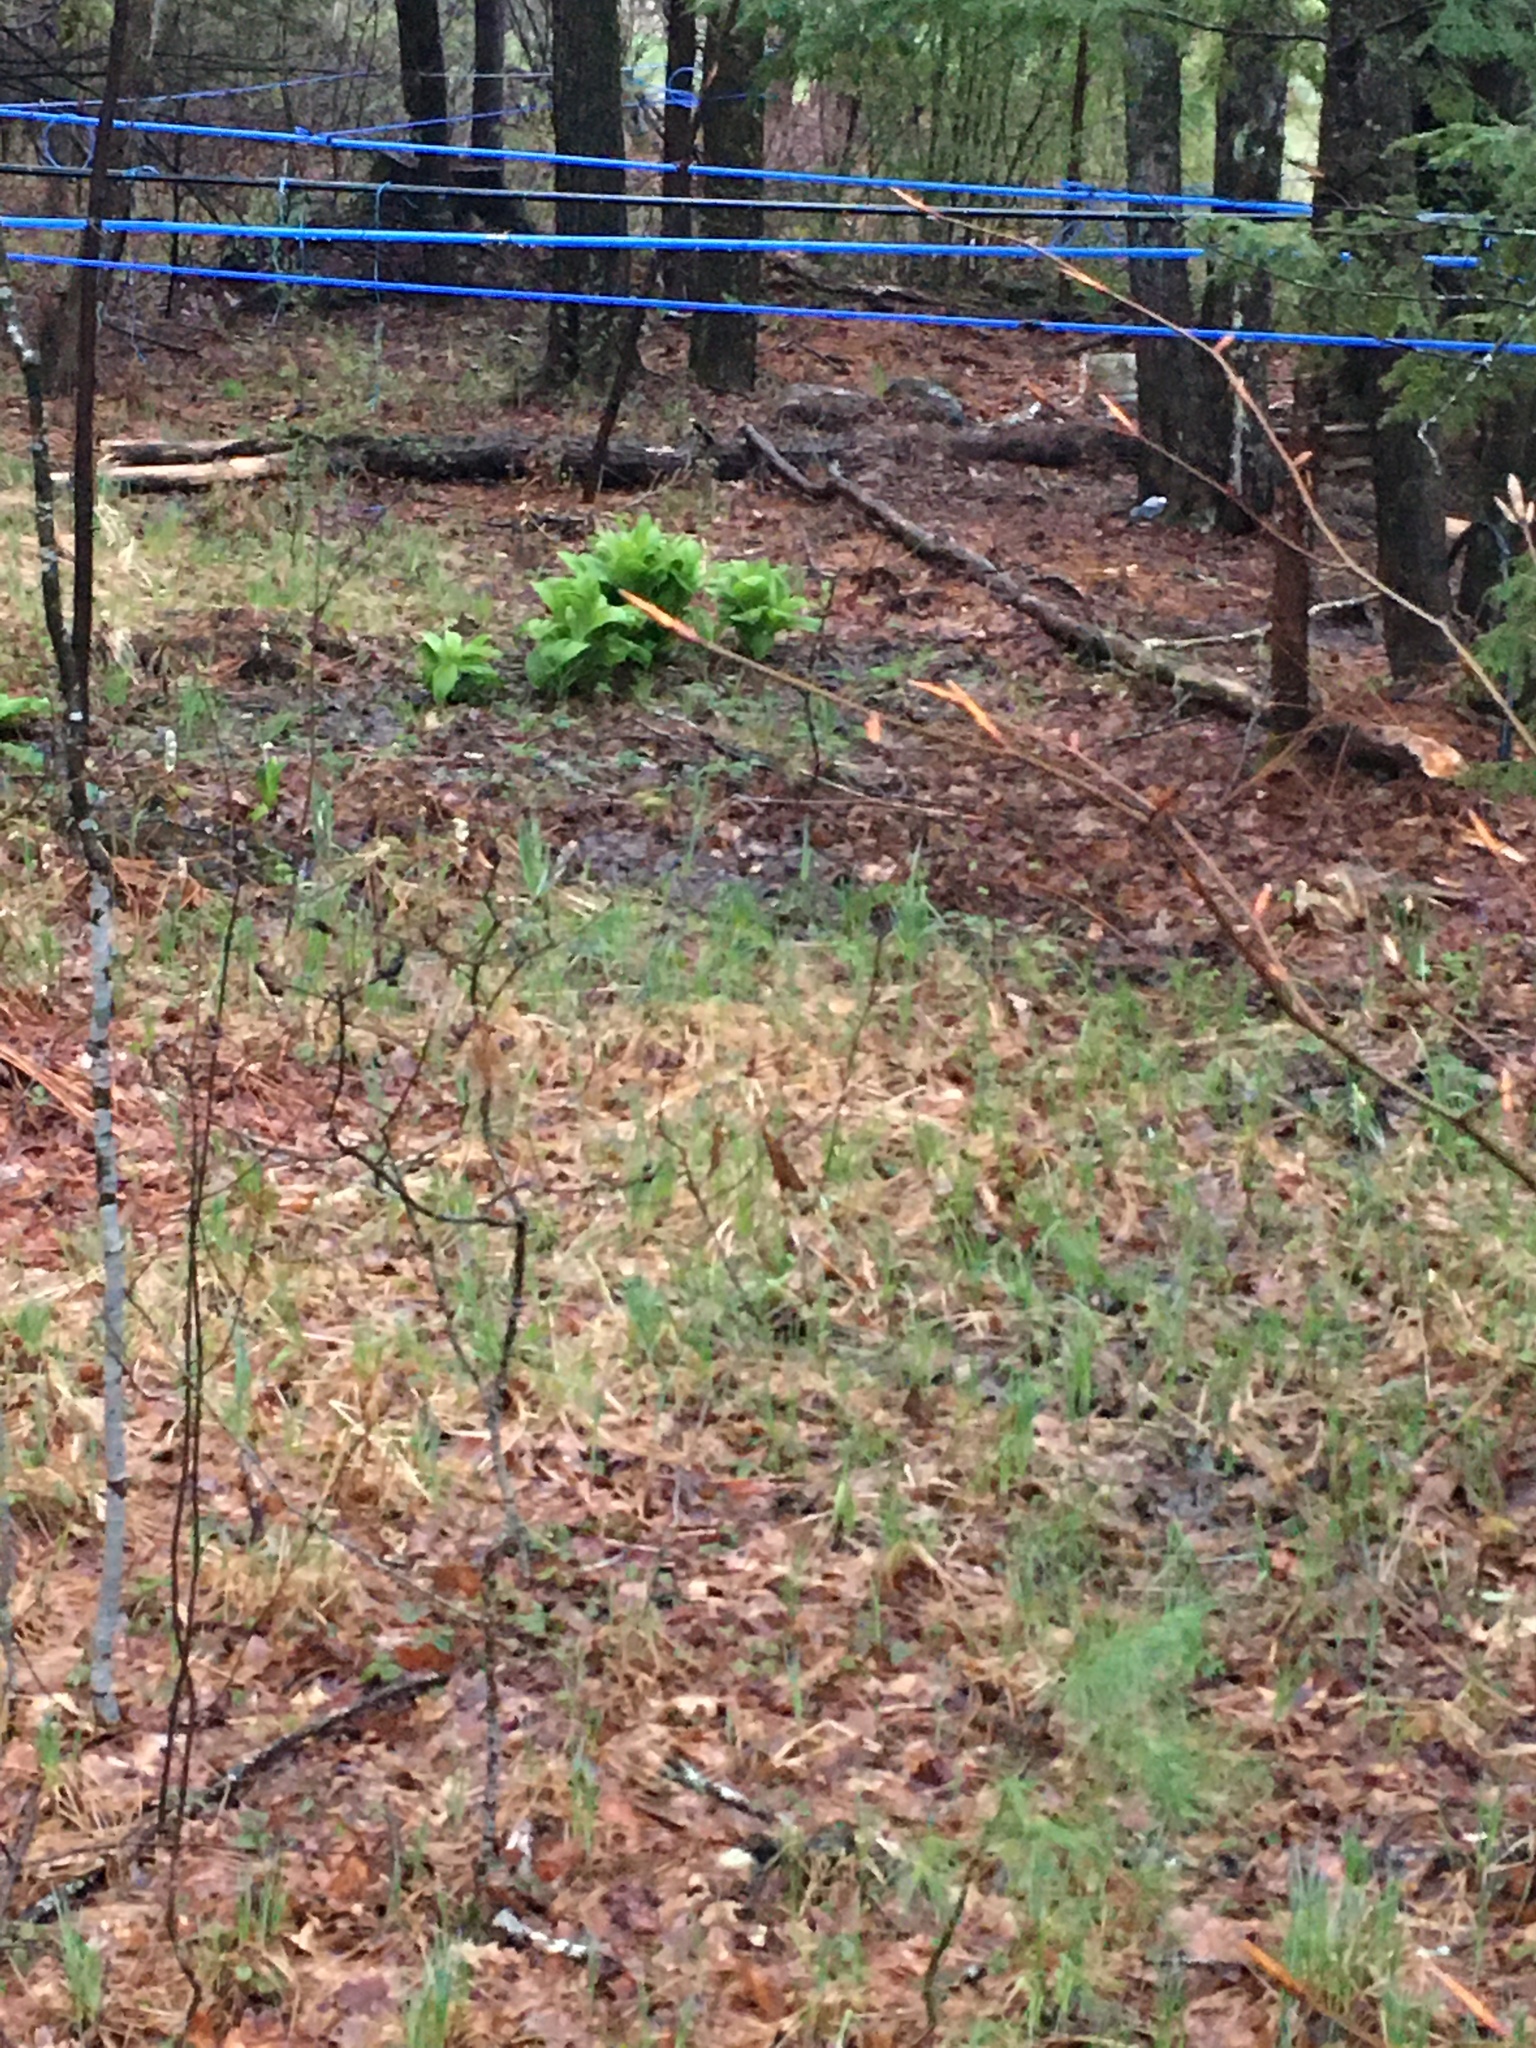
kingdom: Plantae
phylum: Tracheophyta
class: Liliopsida
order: Liliales
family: Melanthiaceae
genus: Veratrum
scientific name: Veratrum viride
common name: American false hellebore
